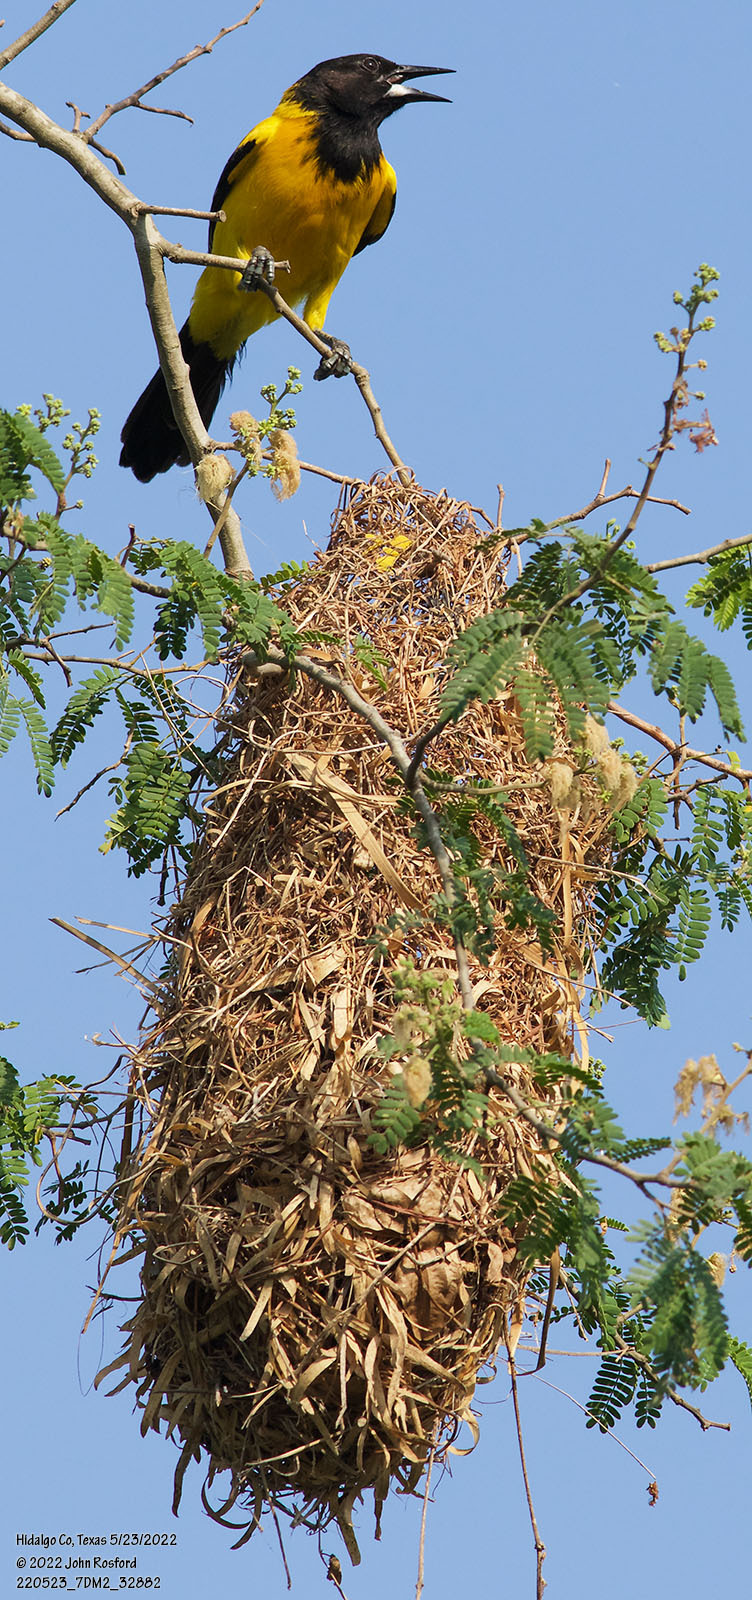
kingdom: Animalia
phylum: Chordata
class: Aves
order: Passeriformes
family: Icteridae
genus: Icterus
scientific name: Icterus graduacauda
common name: Audubon's oriole
